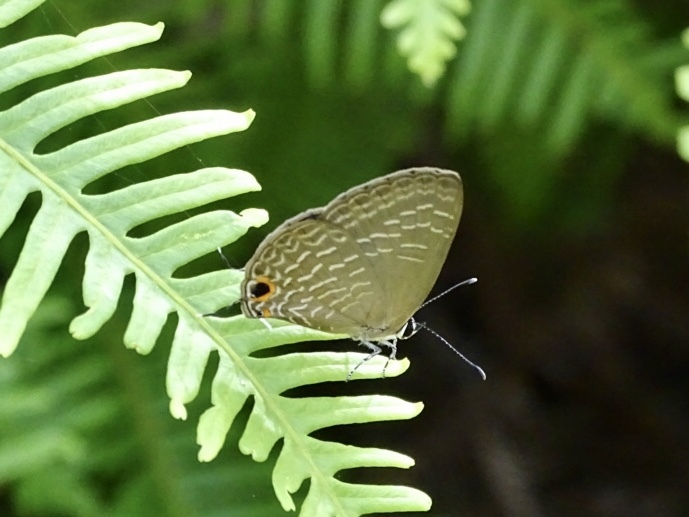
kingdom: Animalia
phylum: Arthropoda
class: Insecta
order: Lepidoptera
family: Lycaenidae
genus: Jamides
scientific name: Jamides bochus
